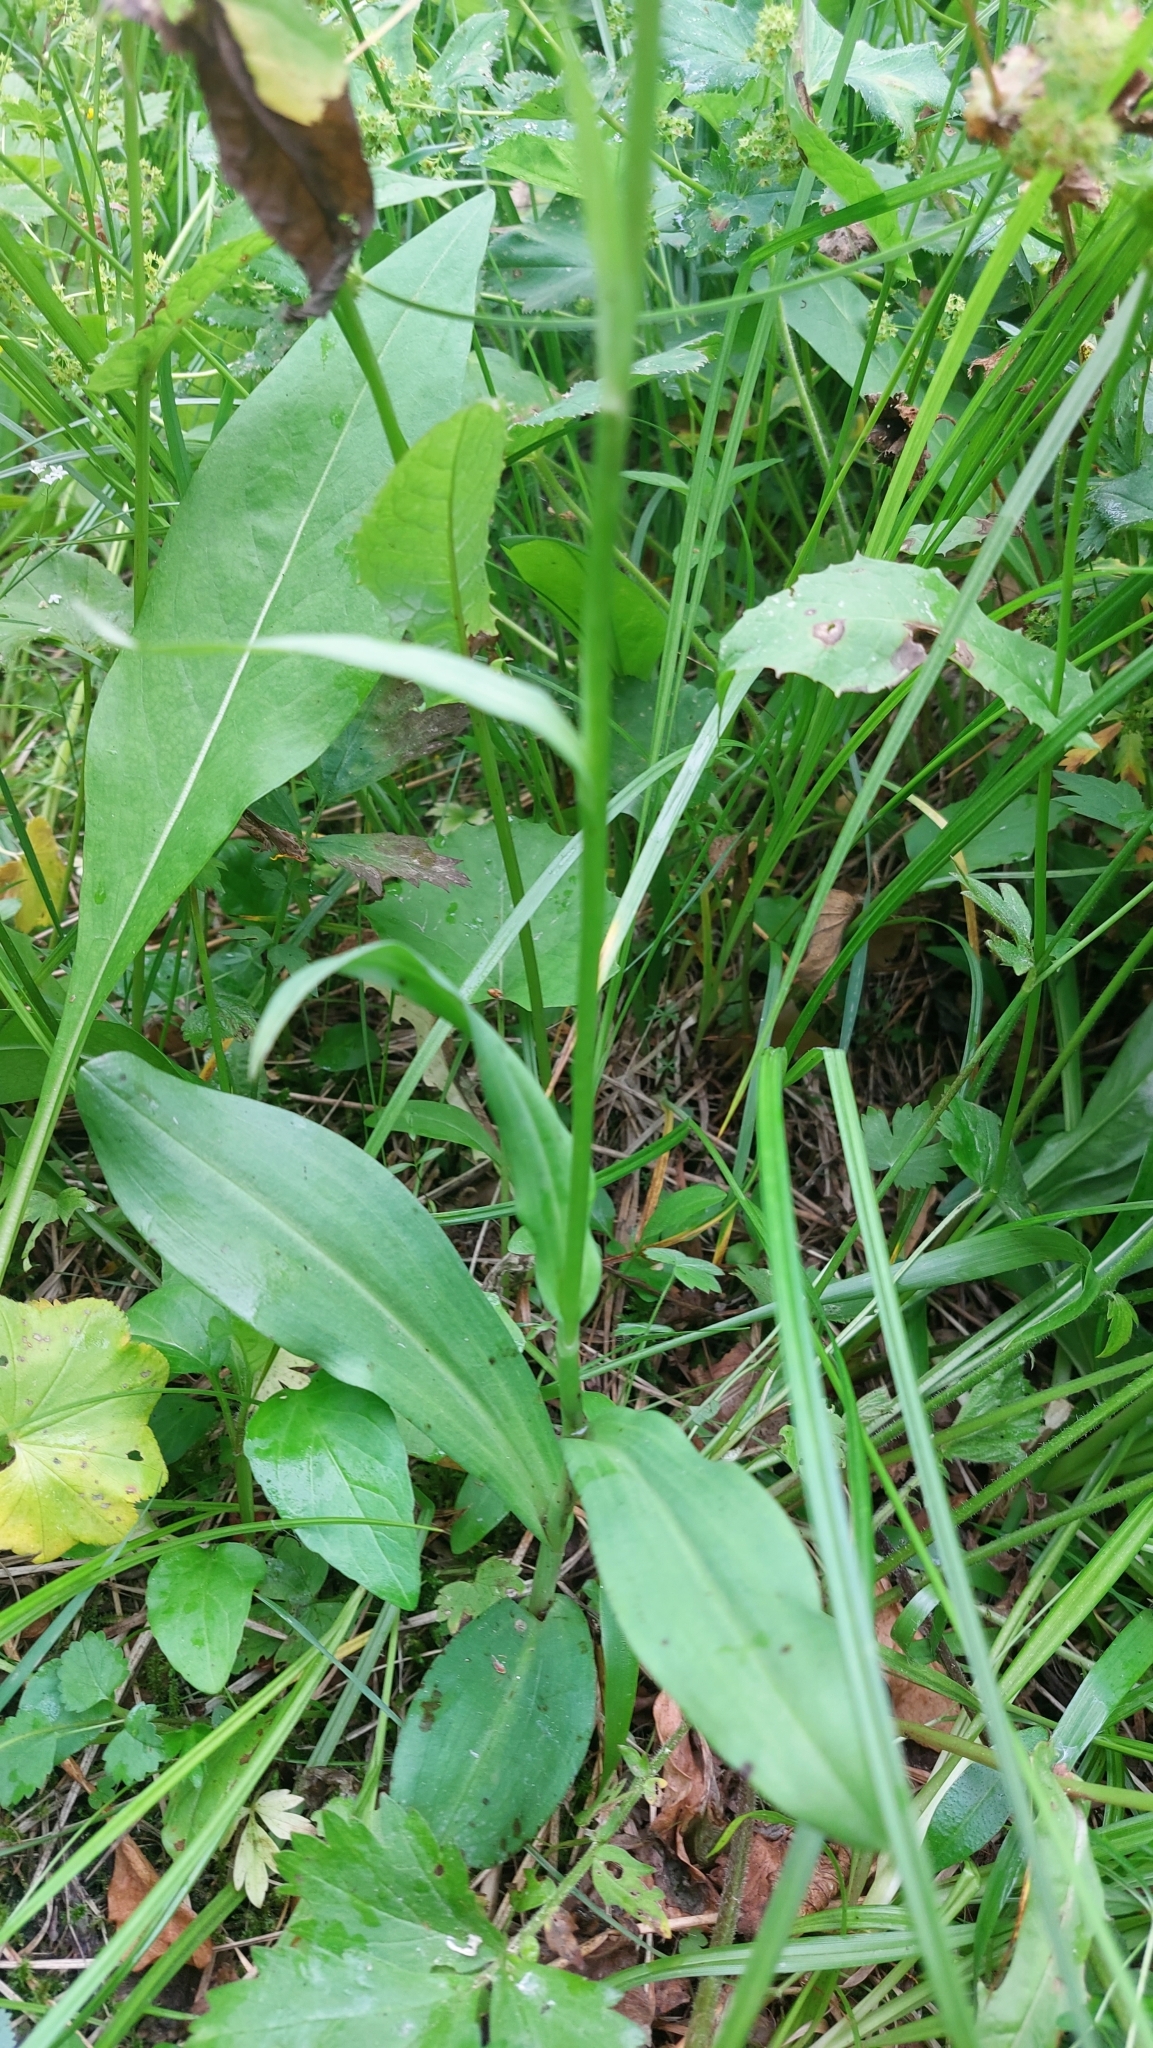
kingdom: Plantae
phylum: Tracheophyta
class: Liliopsida
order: Asparagales
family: Orchidaceae
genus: Dactylorhiza
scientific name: Dactylorhiza maculata
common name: Heath spotted-orchid
